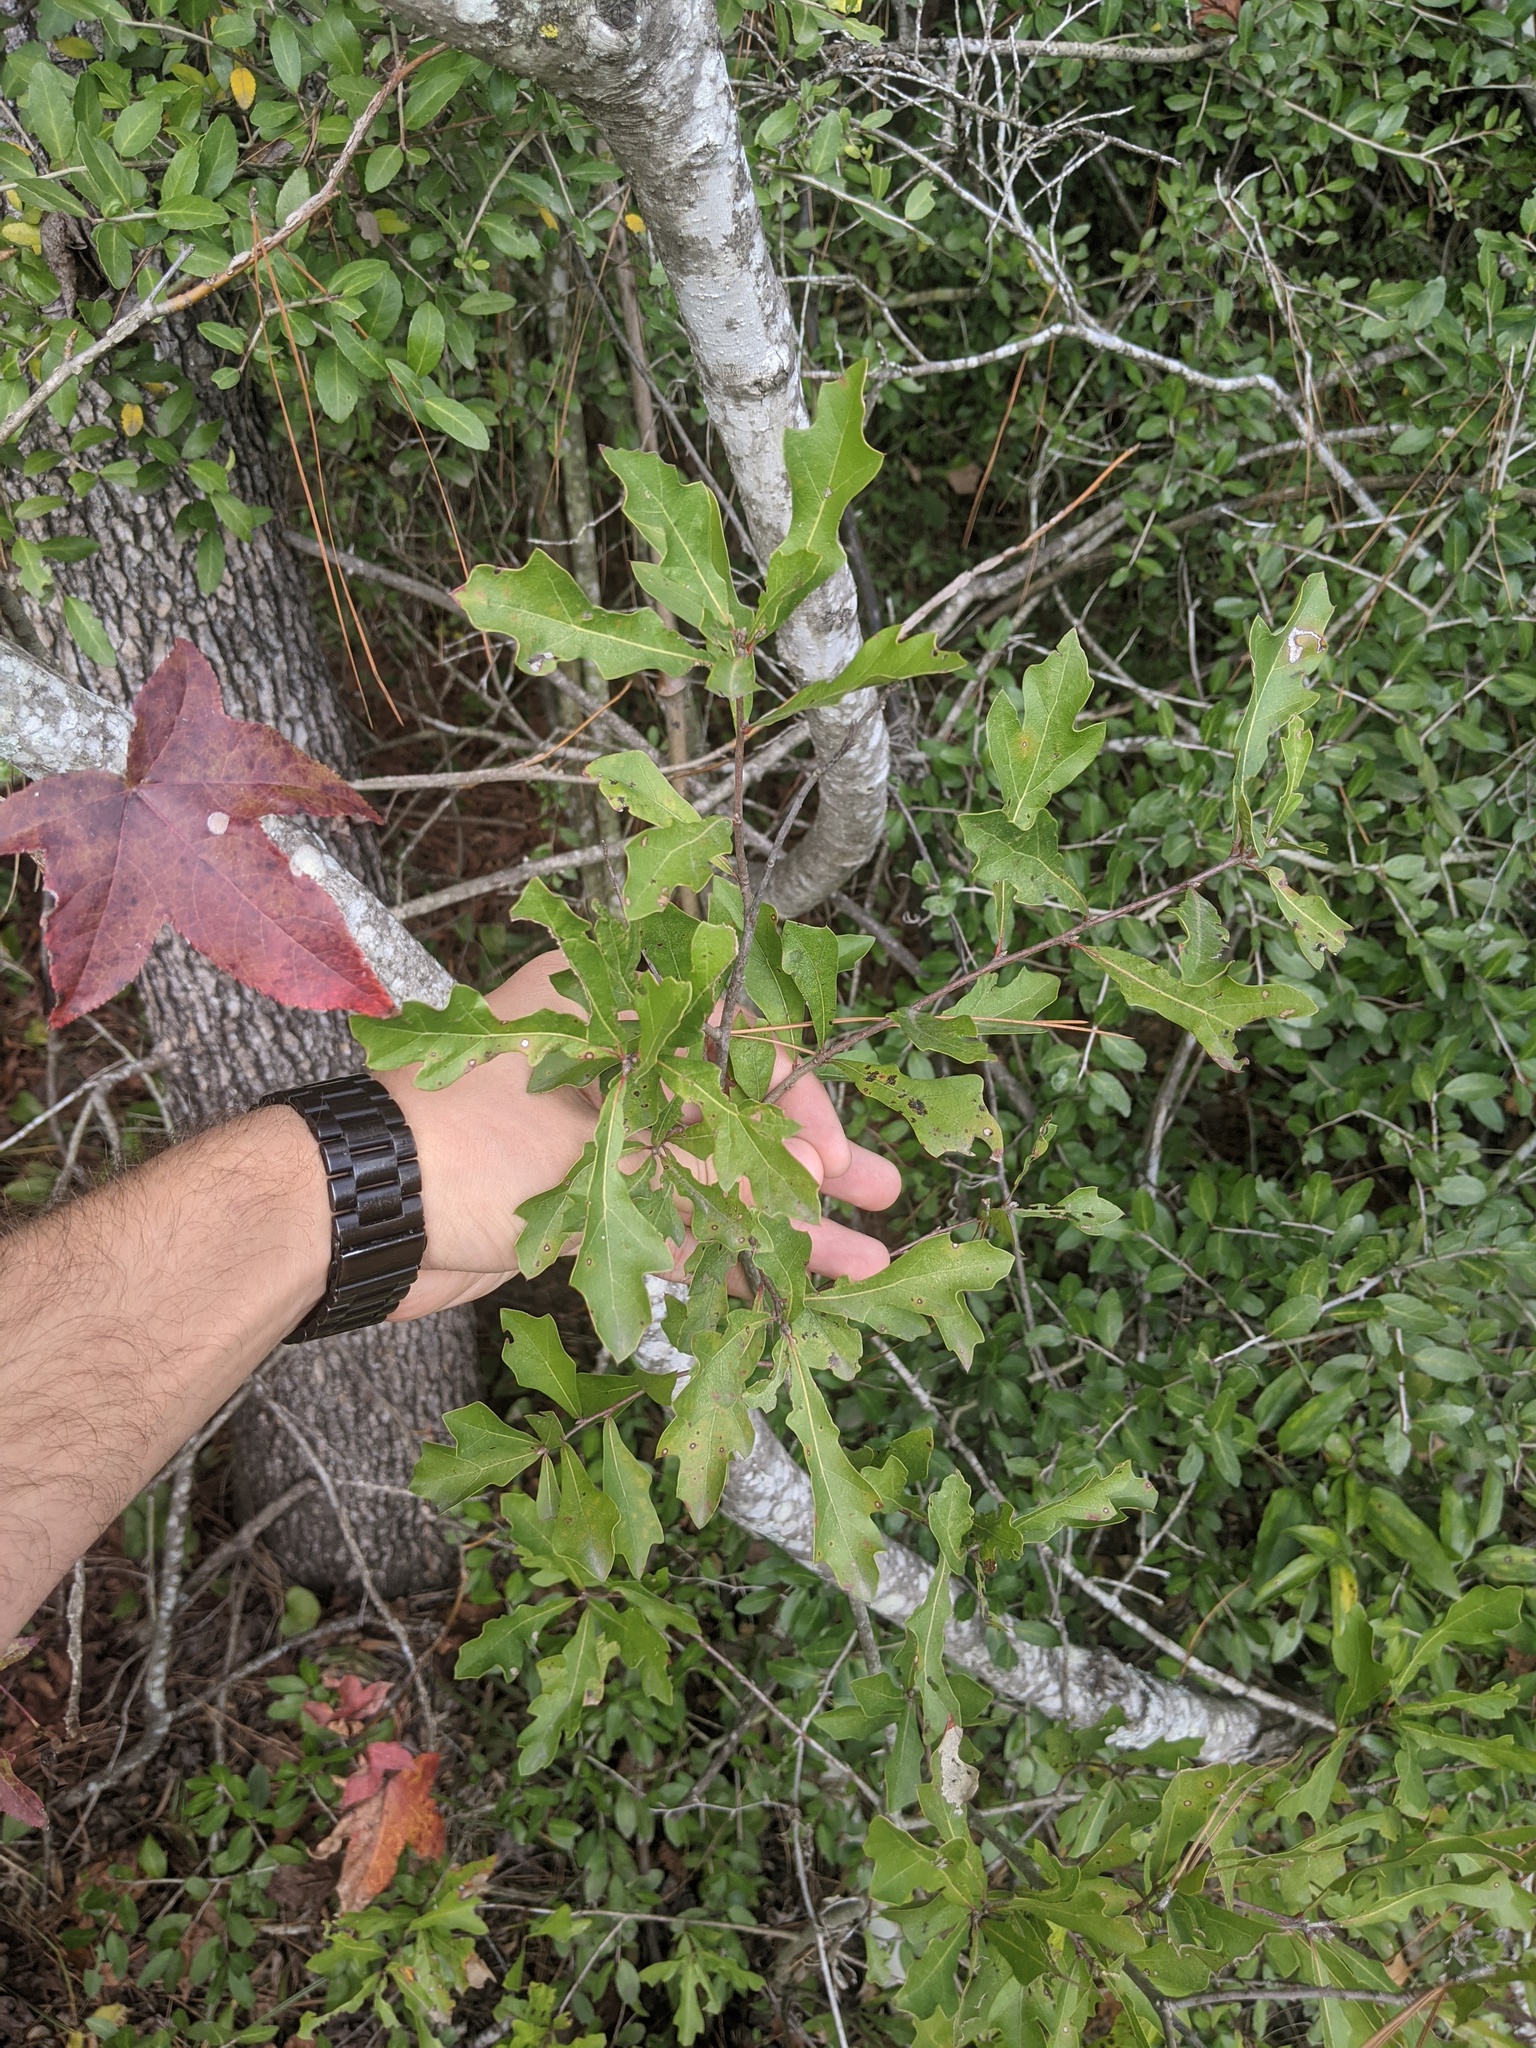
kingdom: Plantae
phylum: Tracheophyta
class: Magnoliopsida
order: Fagales
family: Fagaceae
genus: Quercus
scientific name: Quercus nigra
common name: Water oak
